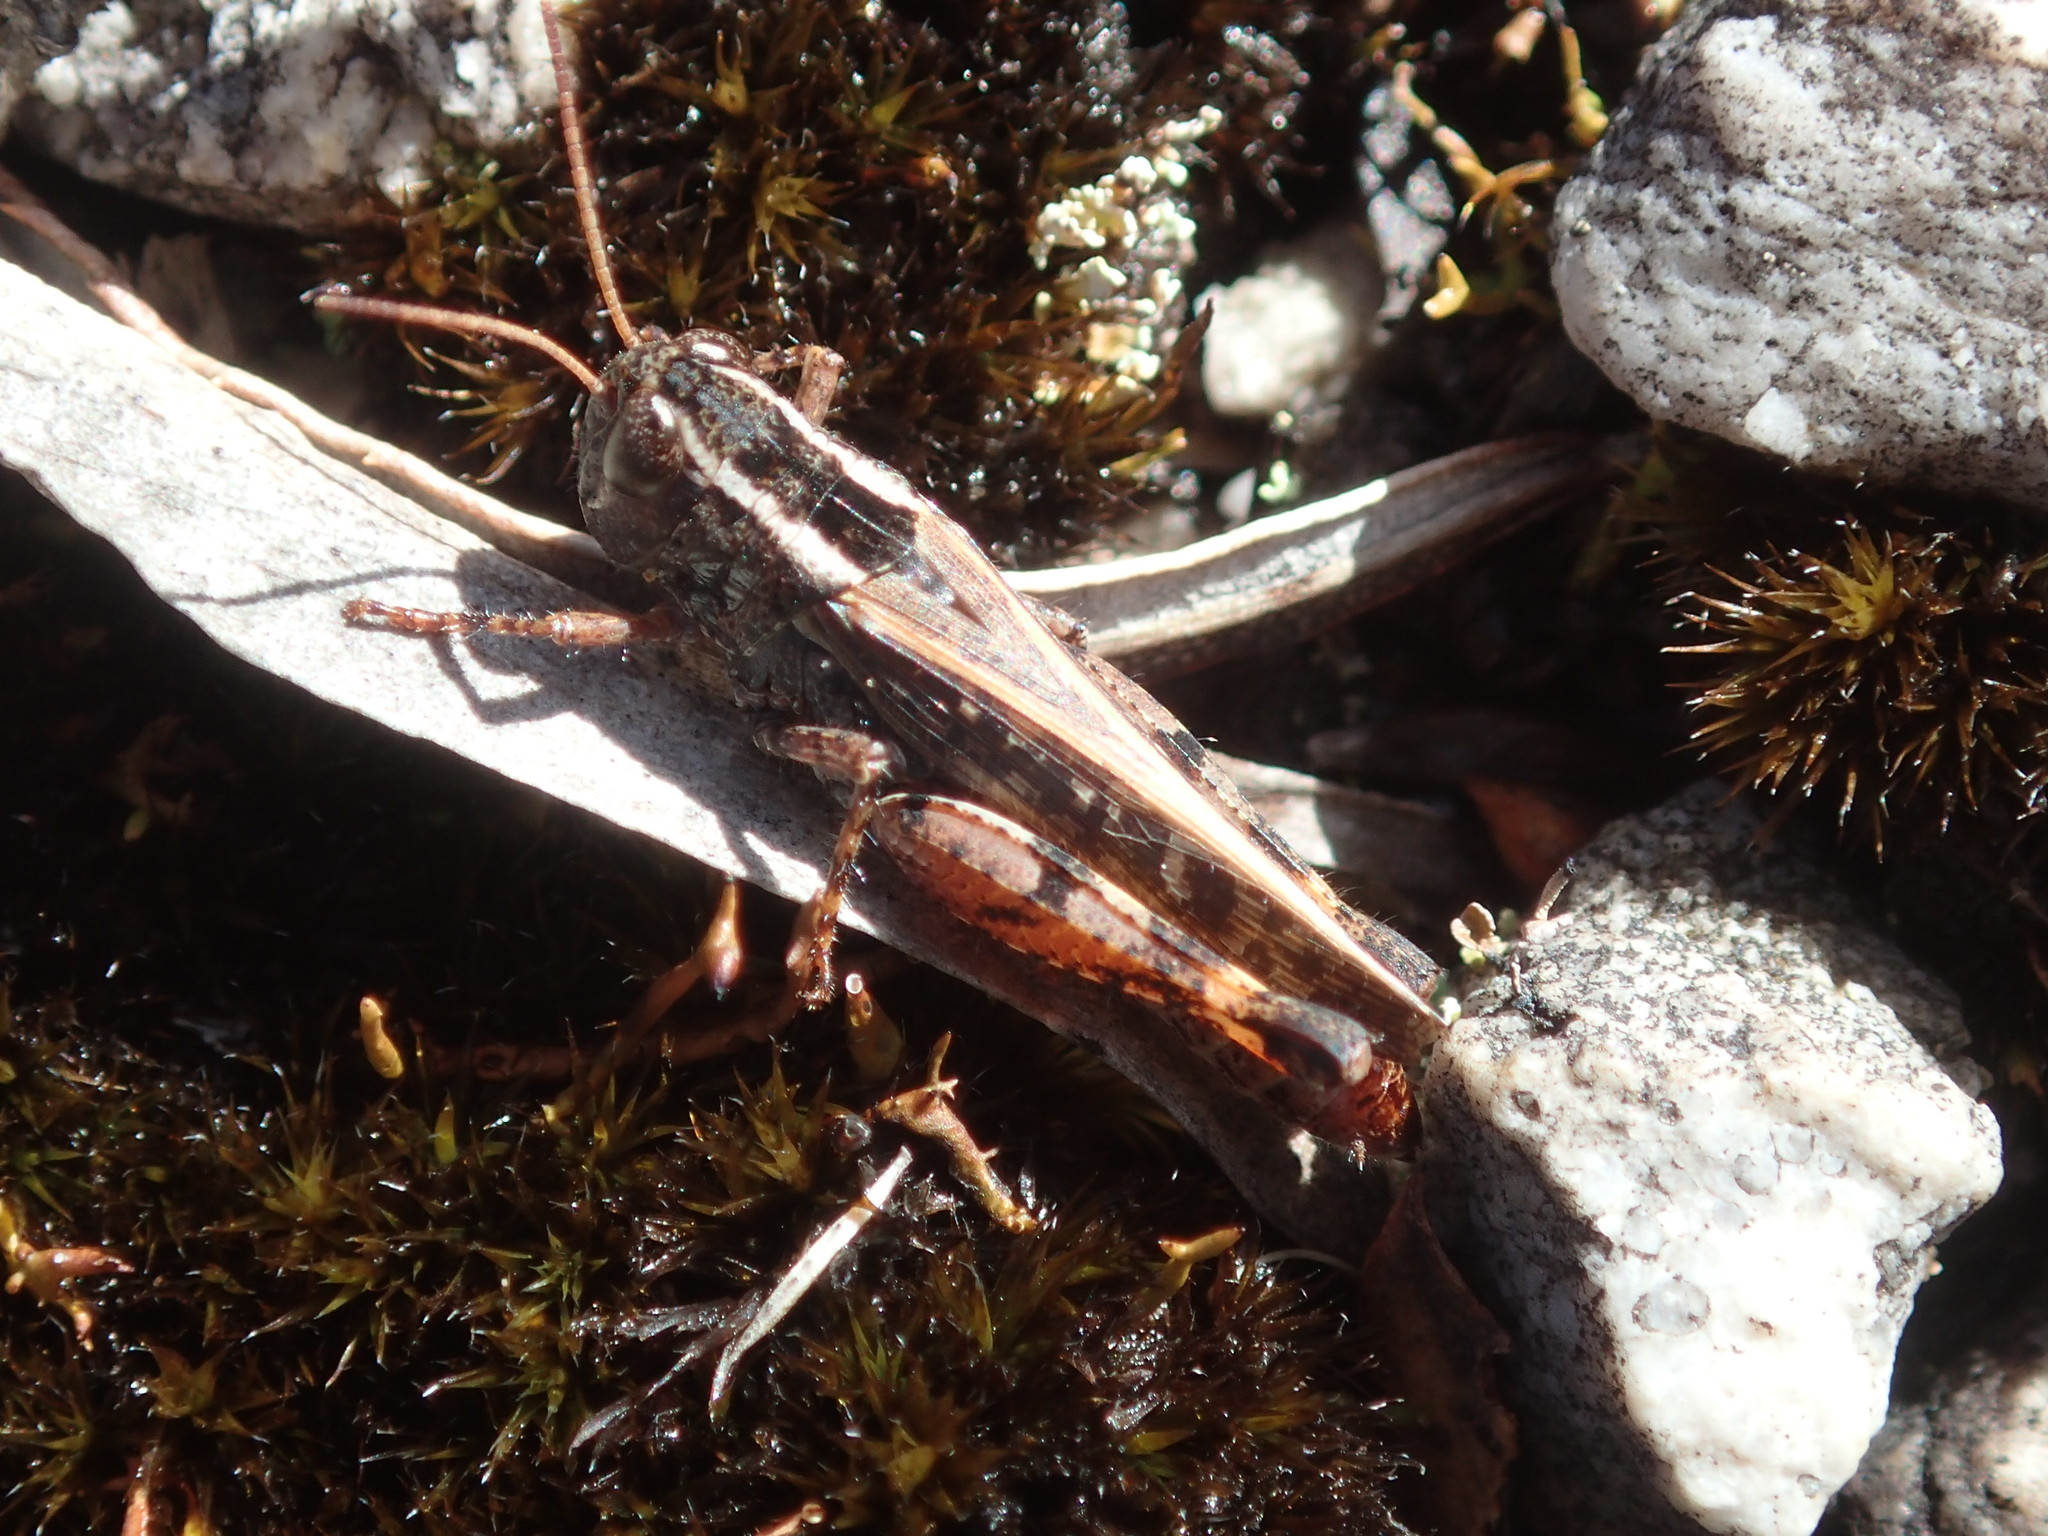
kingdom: Animalia
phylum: Arthropoda
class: Insecta
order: Orthoptera
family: Acrididae
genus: Exarna
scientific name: Exarna includens
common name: Red-legged exarna
